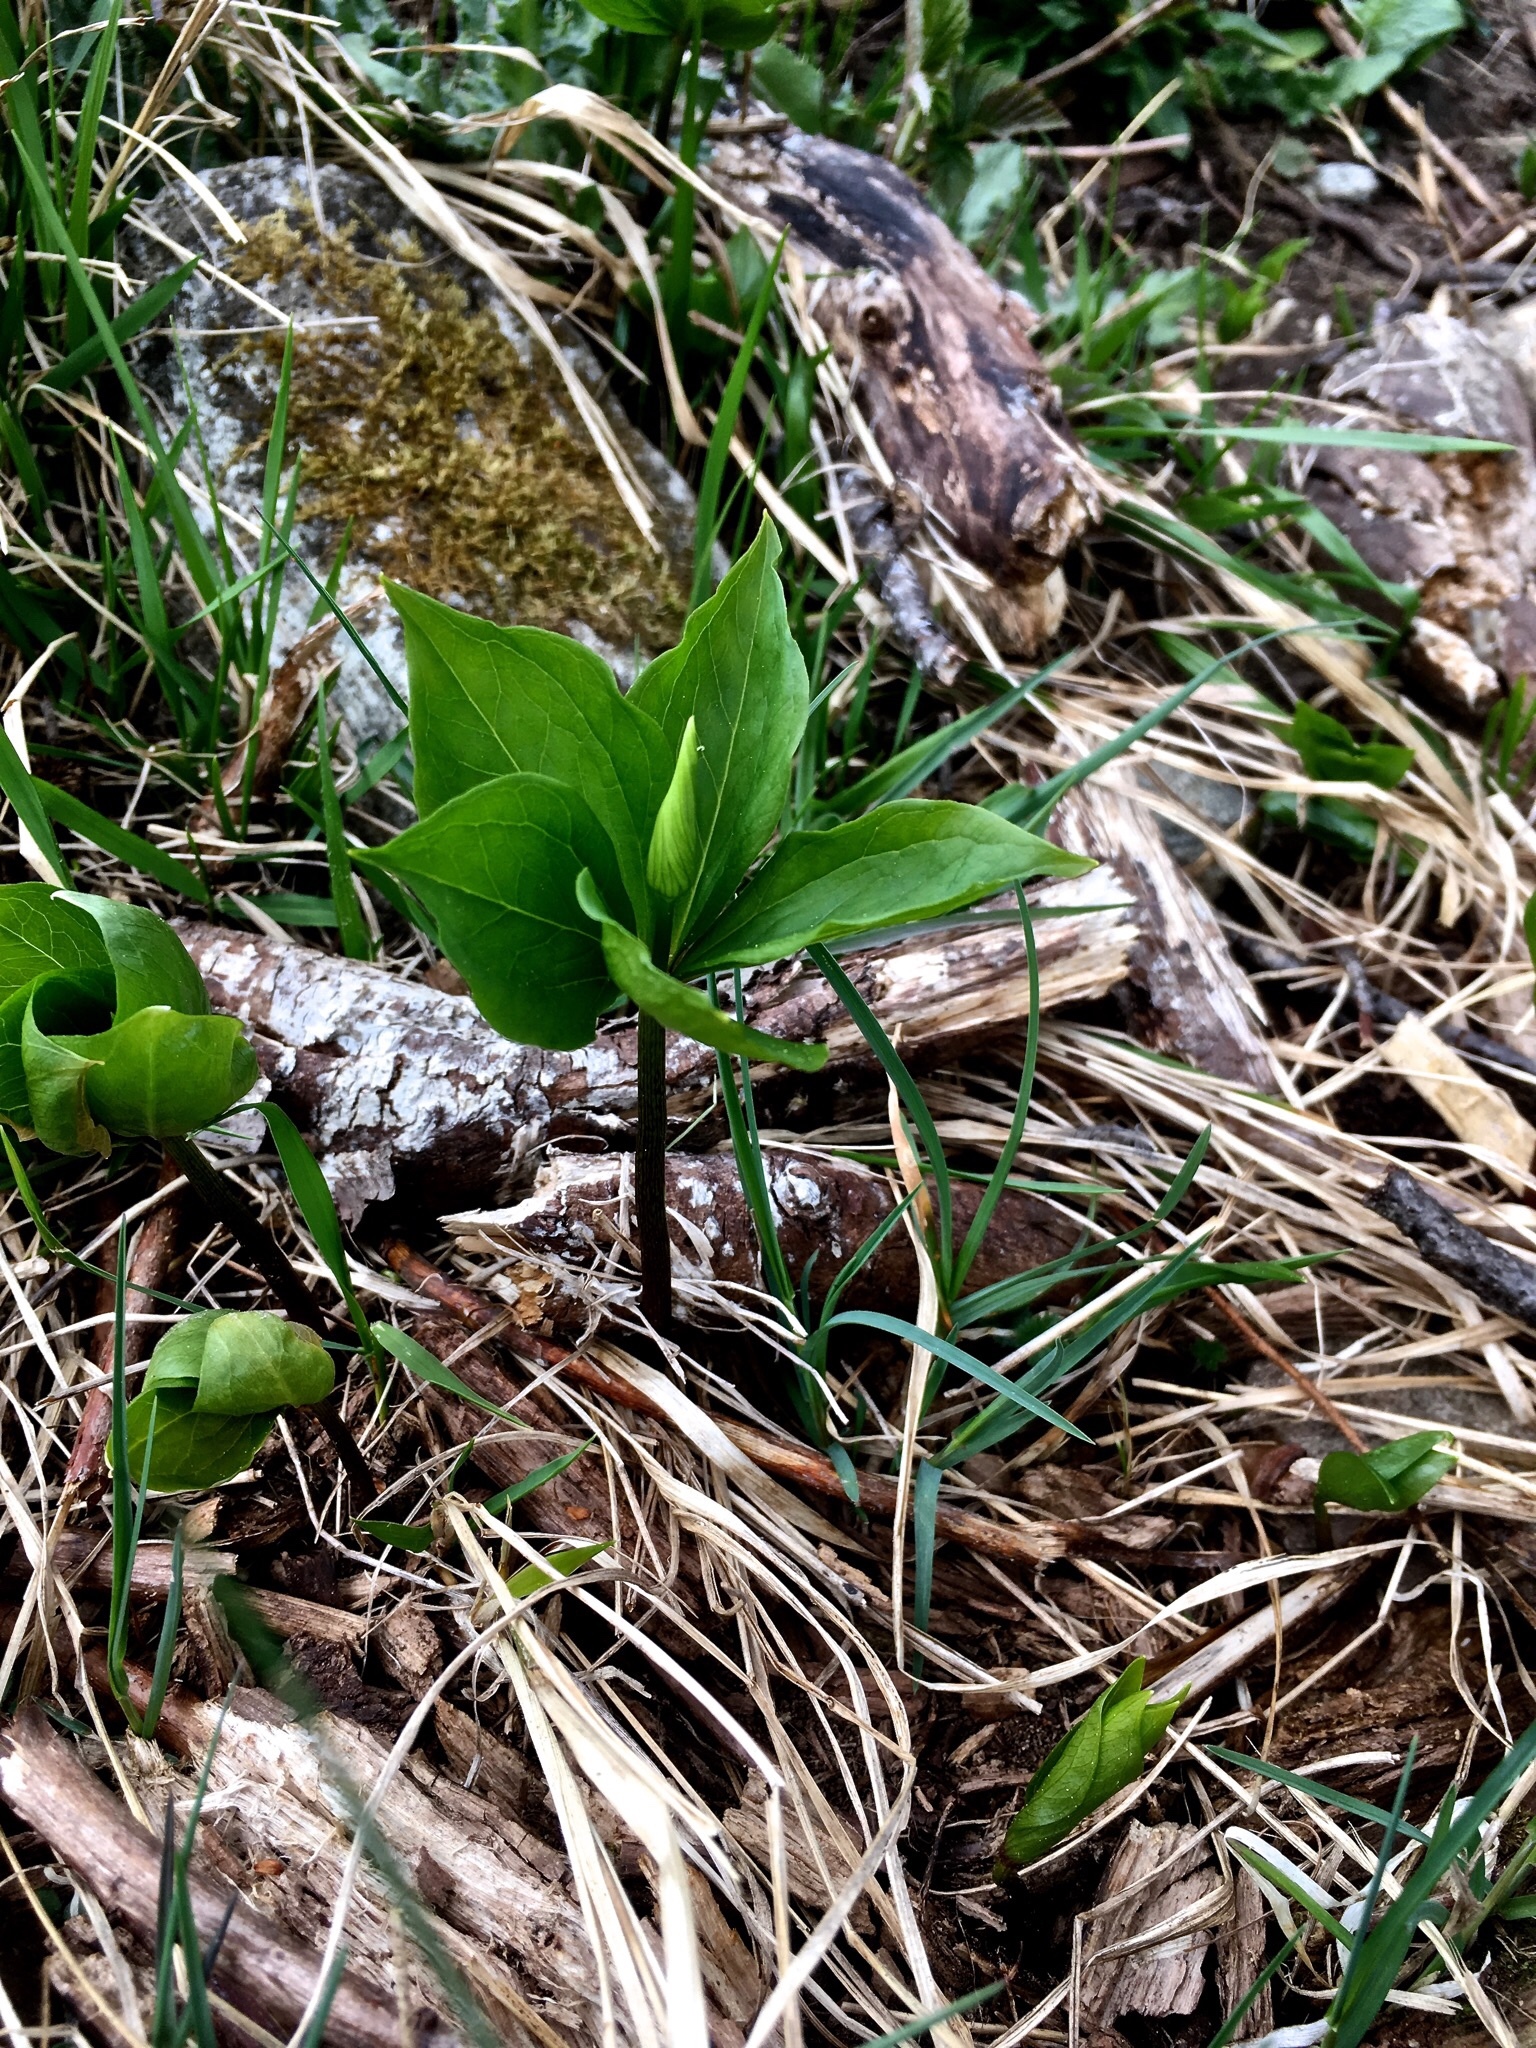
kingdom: Plantae
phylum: Tracheophyta
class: Liliopsida
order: Liliales
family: Melanthiaceae
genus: Paris
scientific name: Paris quadrifolia
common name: Herb-paris
